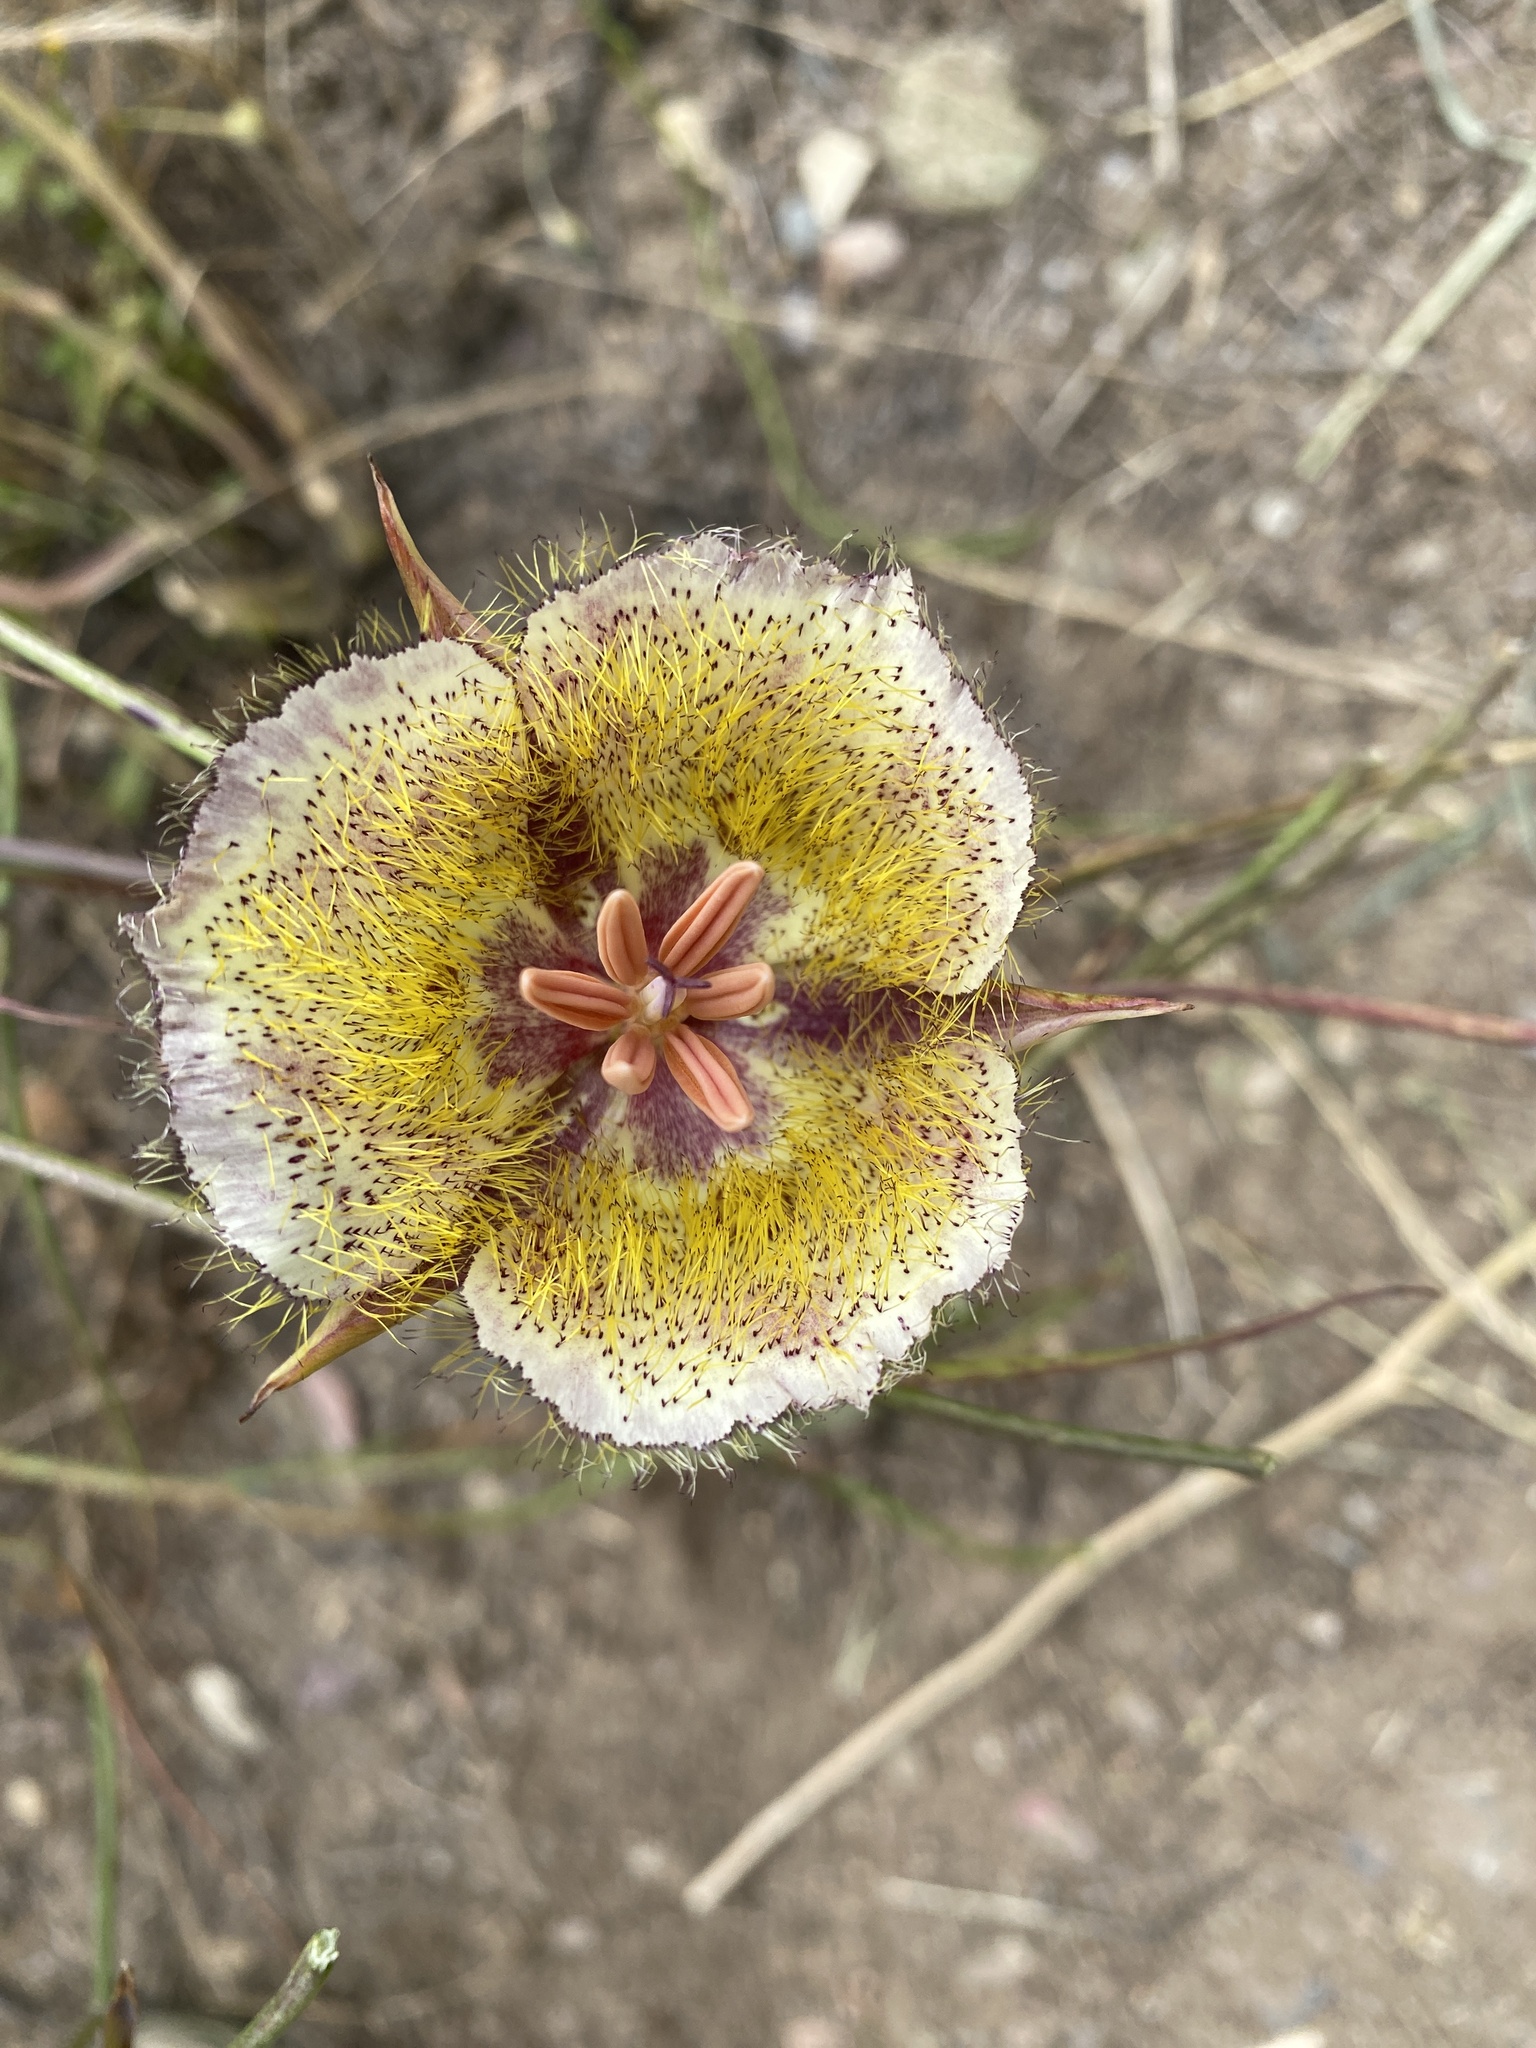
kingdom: Plantae
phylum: Tracheophyta
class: Liliopsida
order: Liliales
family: Liliaceae
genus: Calochortus
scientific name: Calochortus weedii
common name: Weed's mariposa-lily
